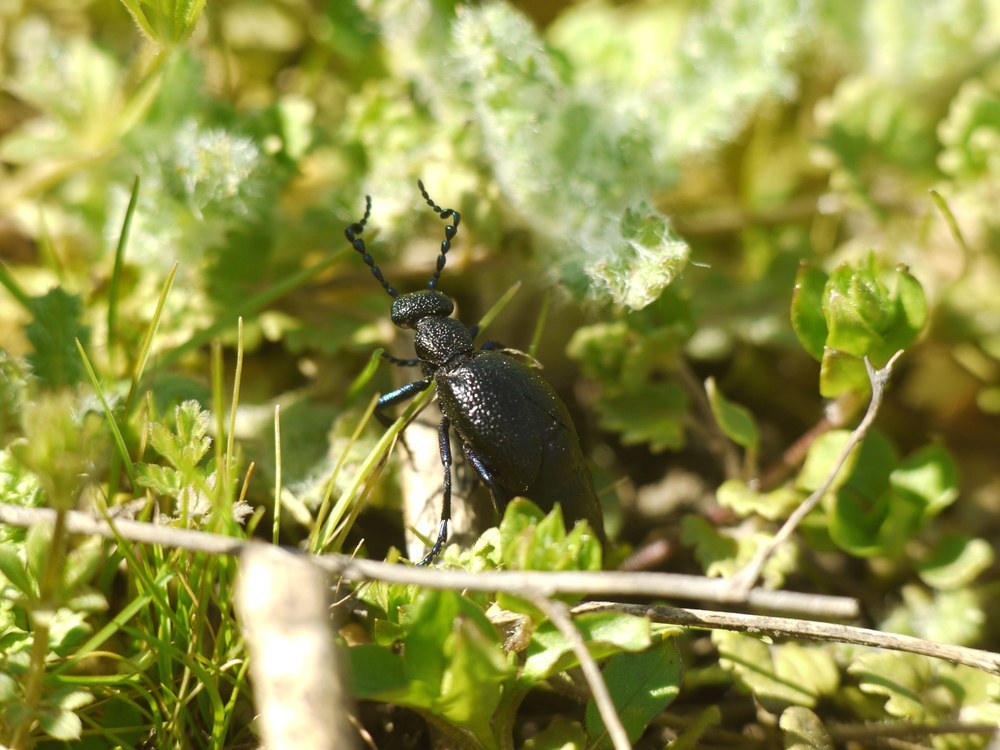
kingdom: Animalia
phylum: Arthropoda
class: Insecta
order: Coleoptera
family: Meloidae
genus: Meloe
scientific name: Meloe proscarabaeus
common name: Black oil-beetle
